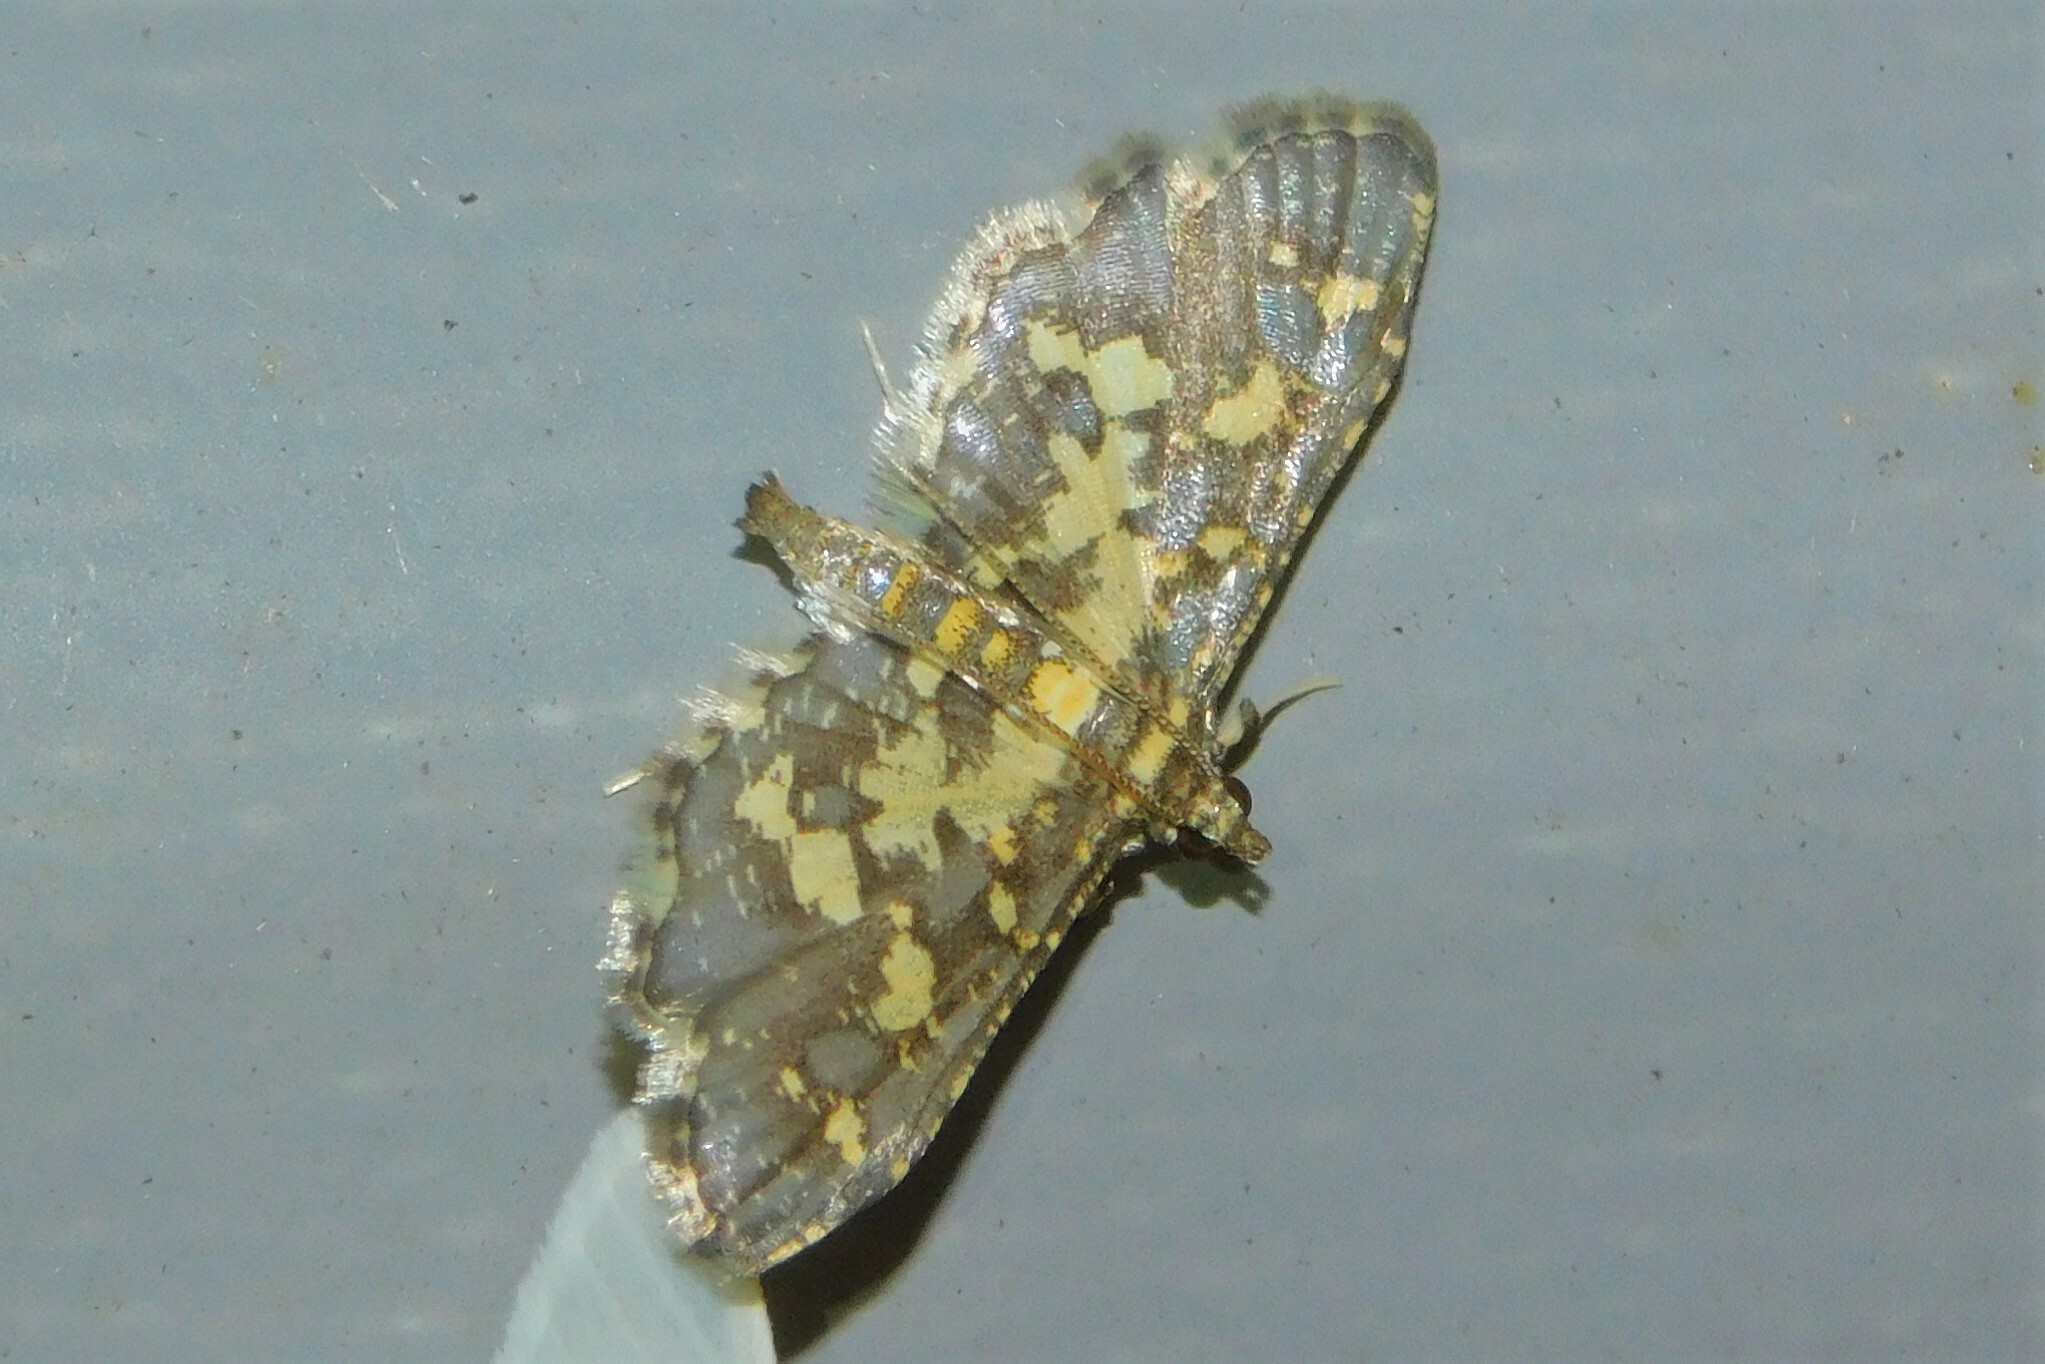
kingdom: Animalia
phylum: Arthropoda
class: Insecta
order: Lepidoptera
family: Crambidae
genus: Eurrhyparodes
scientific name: Eurrhyparodes bracteolalis
